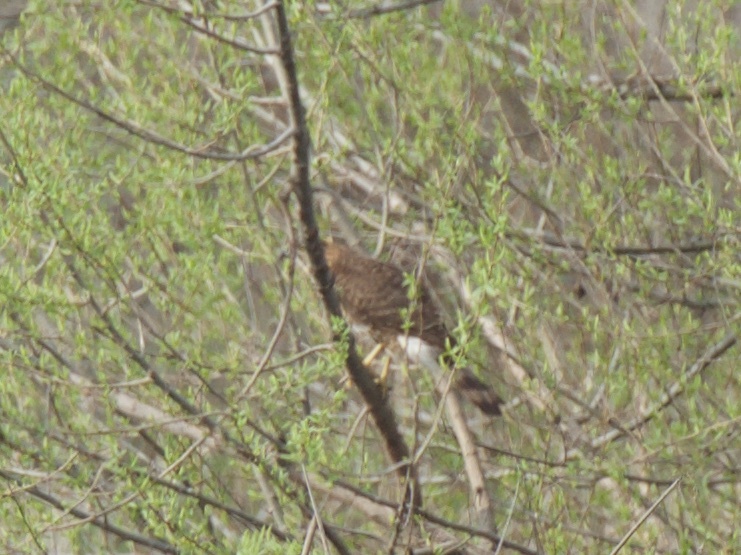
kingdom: Animalia
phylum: Chordata
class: Aves
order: Accipitriformes
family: Accipitridae
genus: Accipiter
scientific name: Accipiter cooperii
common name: Cooper's hawk
